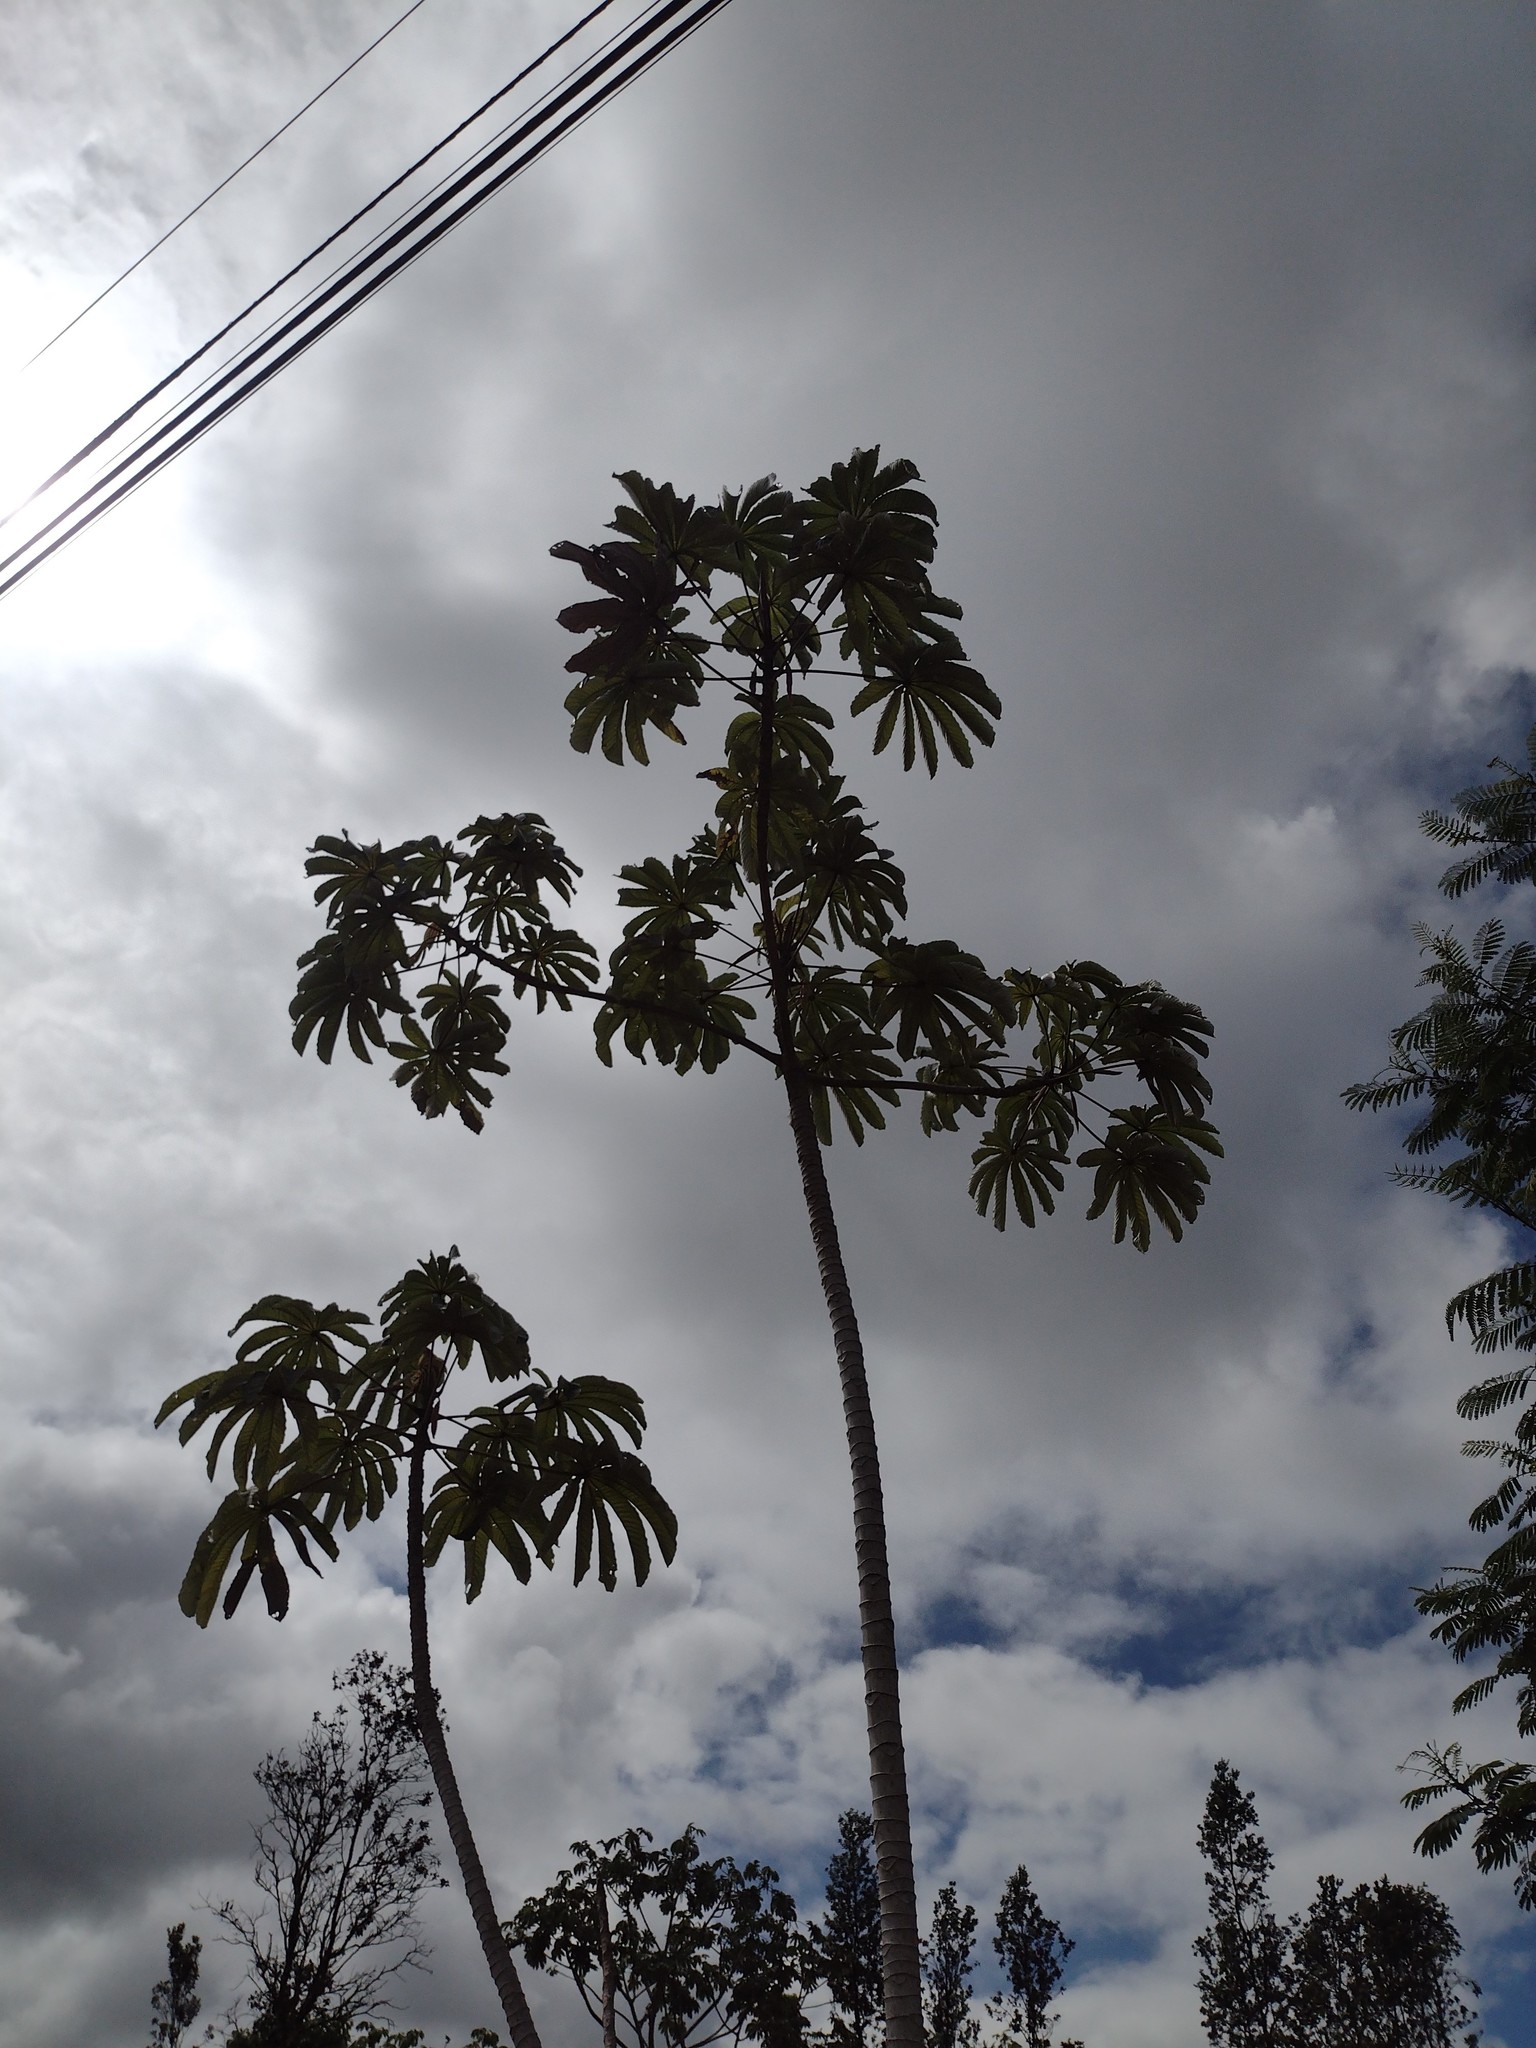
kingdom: Plantae
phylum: Tracheophyta
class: Magnoliopsida
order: Rosales
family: Urticaceae
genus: Cecropia
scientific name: Cecropia obtusifolia
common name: Trumpet tree
